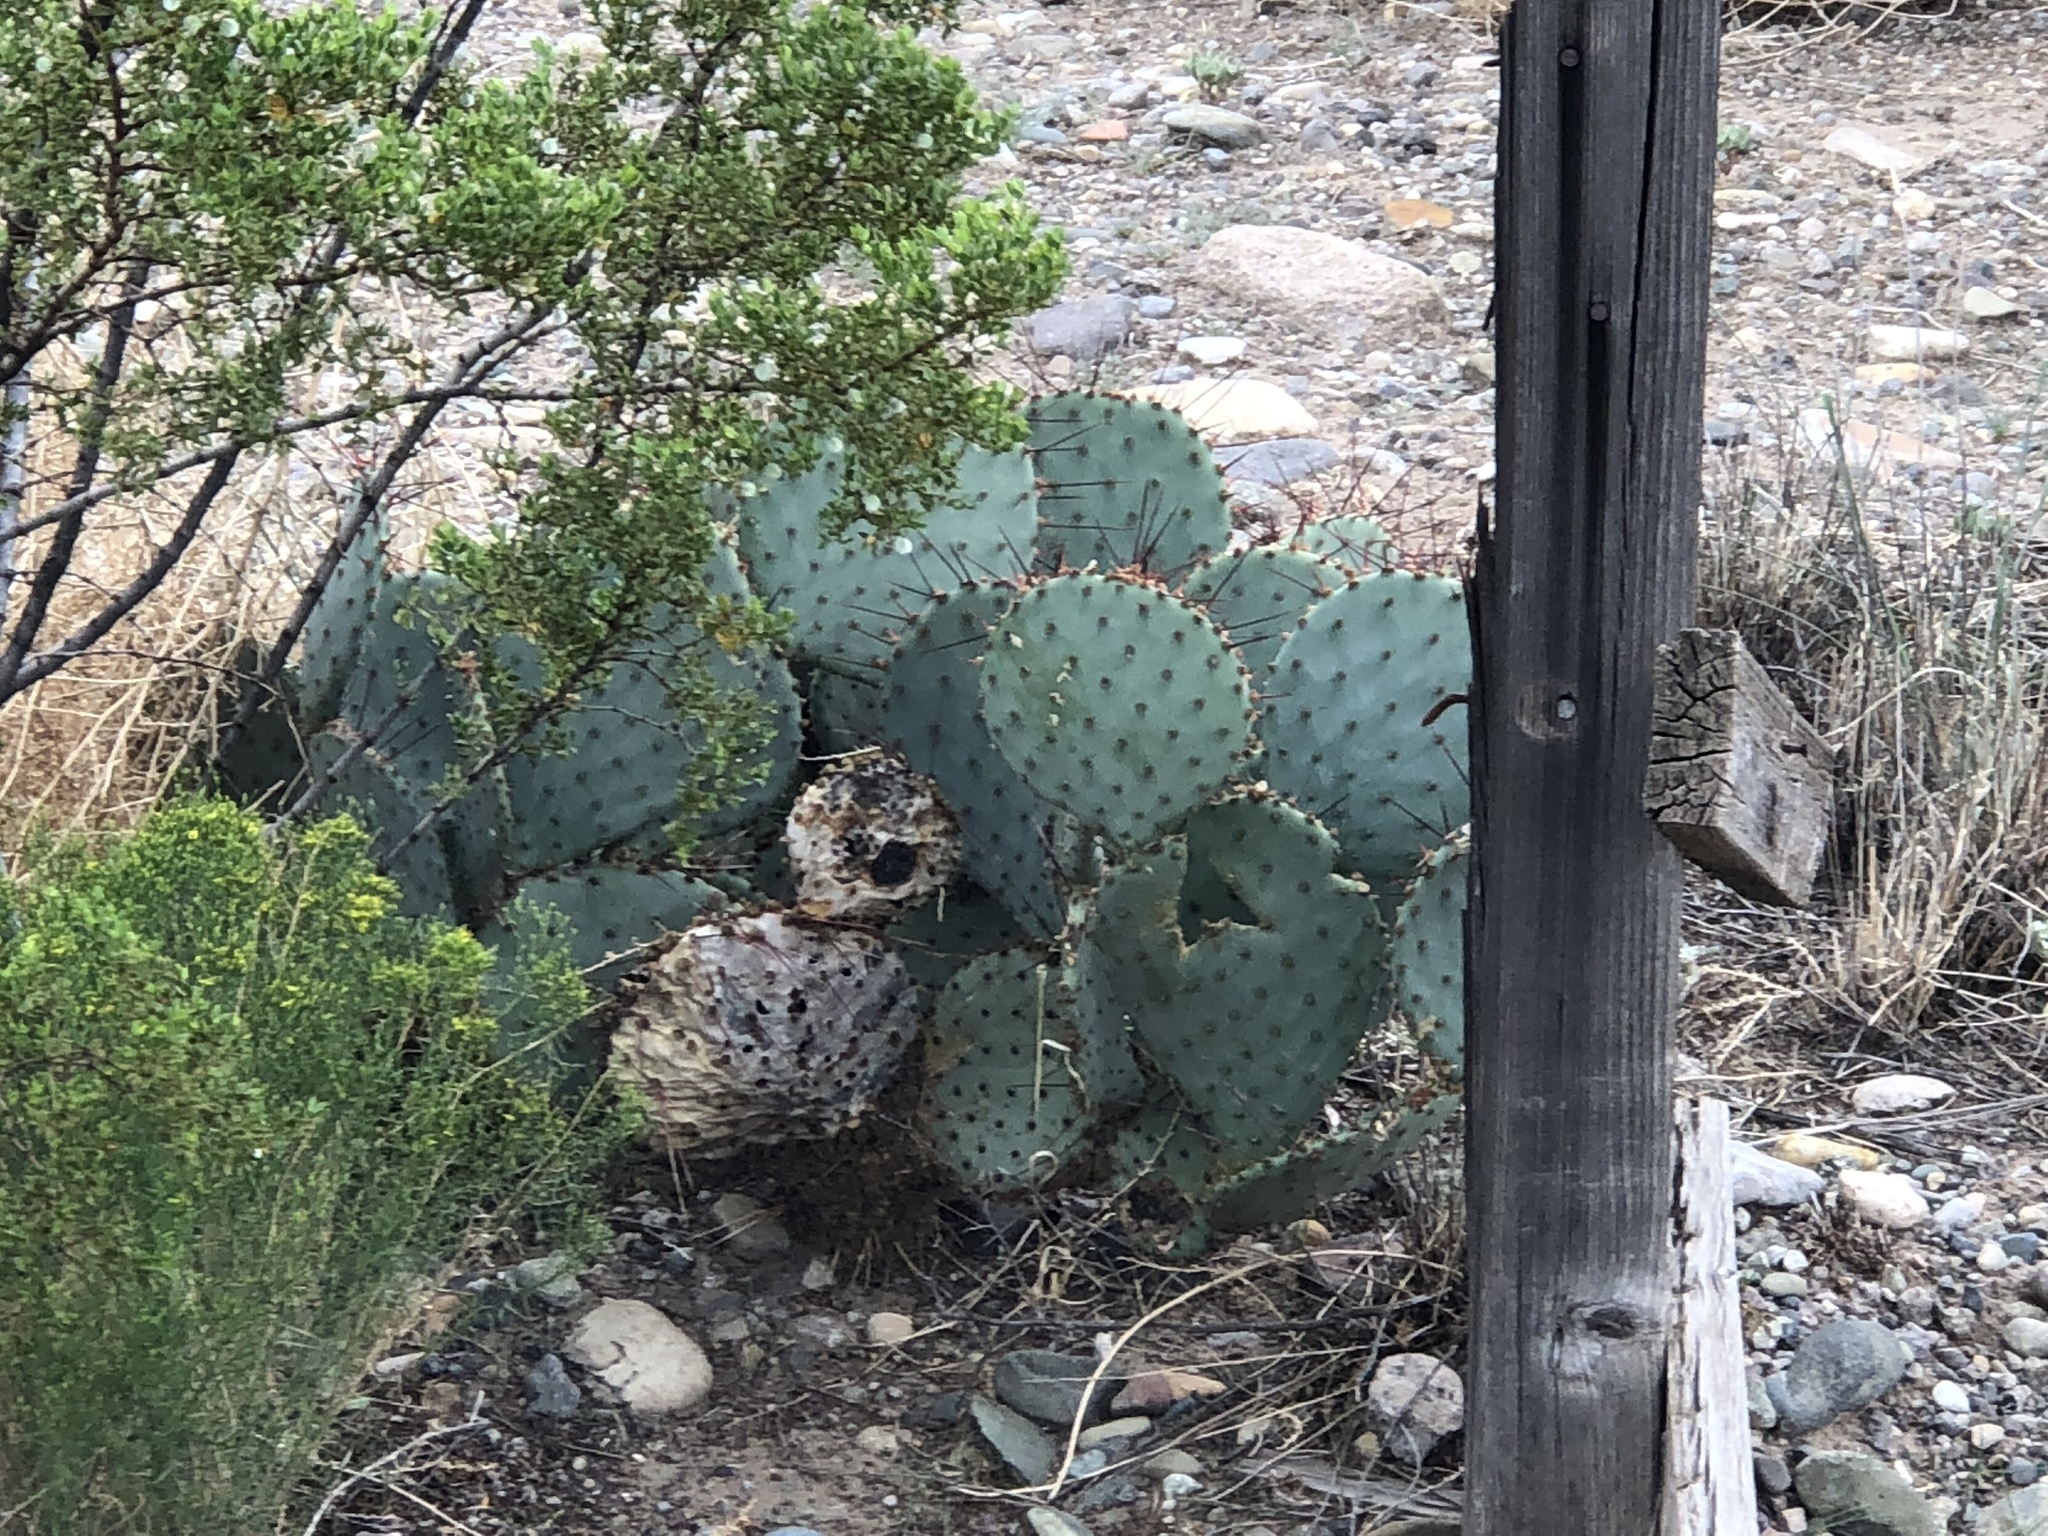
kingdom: Plantae
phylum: Tracheophyta
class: Magnoliopsida
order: Caryophyllales
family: Cactaceae
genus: Opuntia
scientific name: Opuntia macrocentra
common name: Purple prickly-pear
